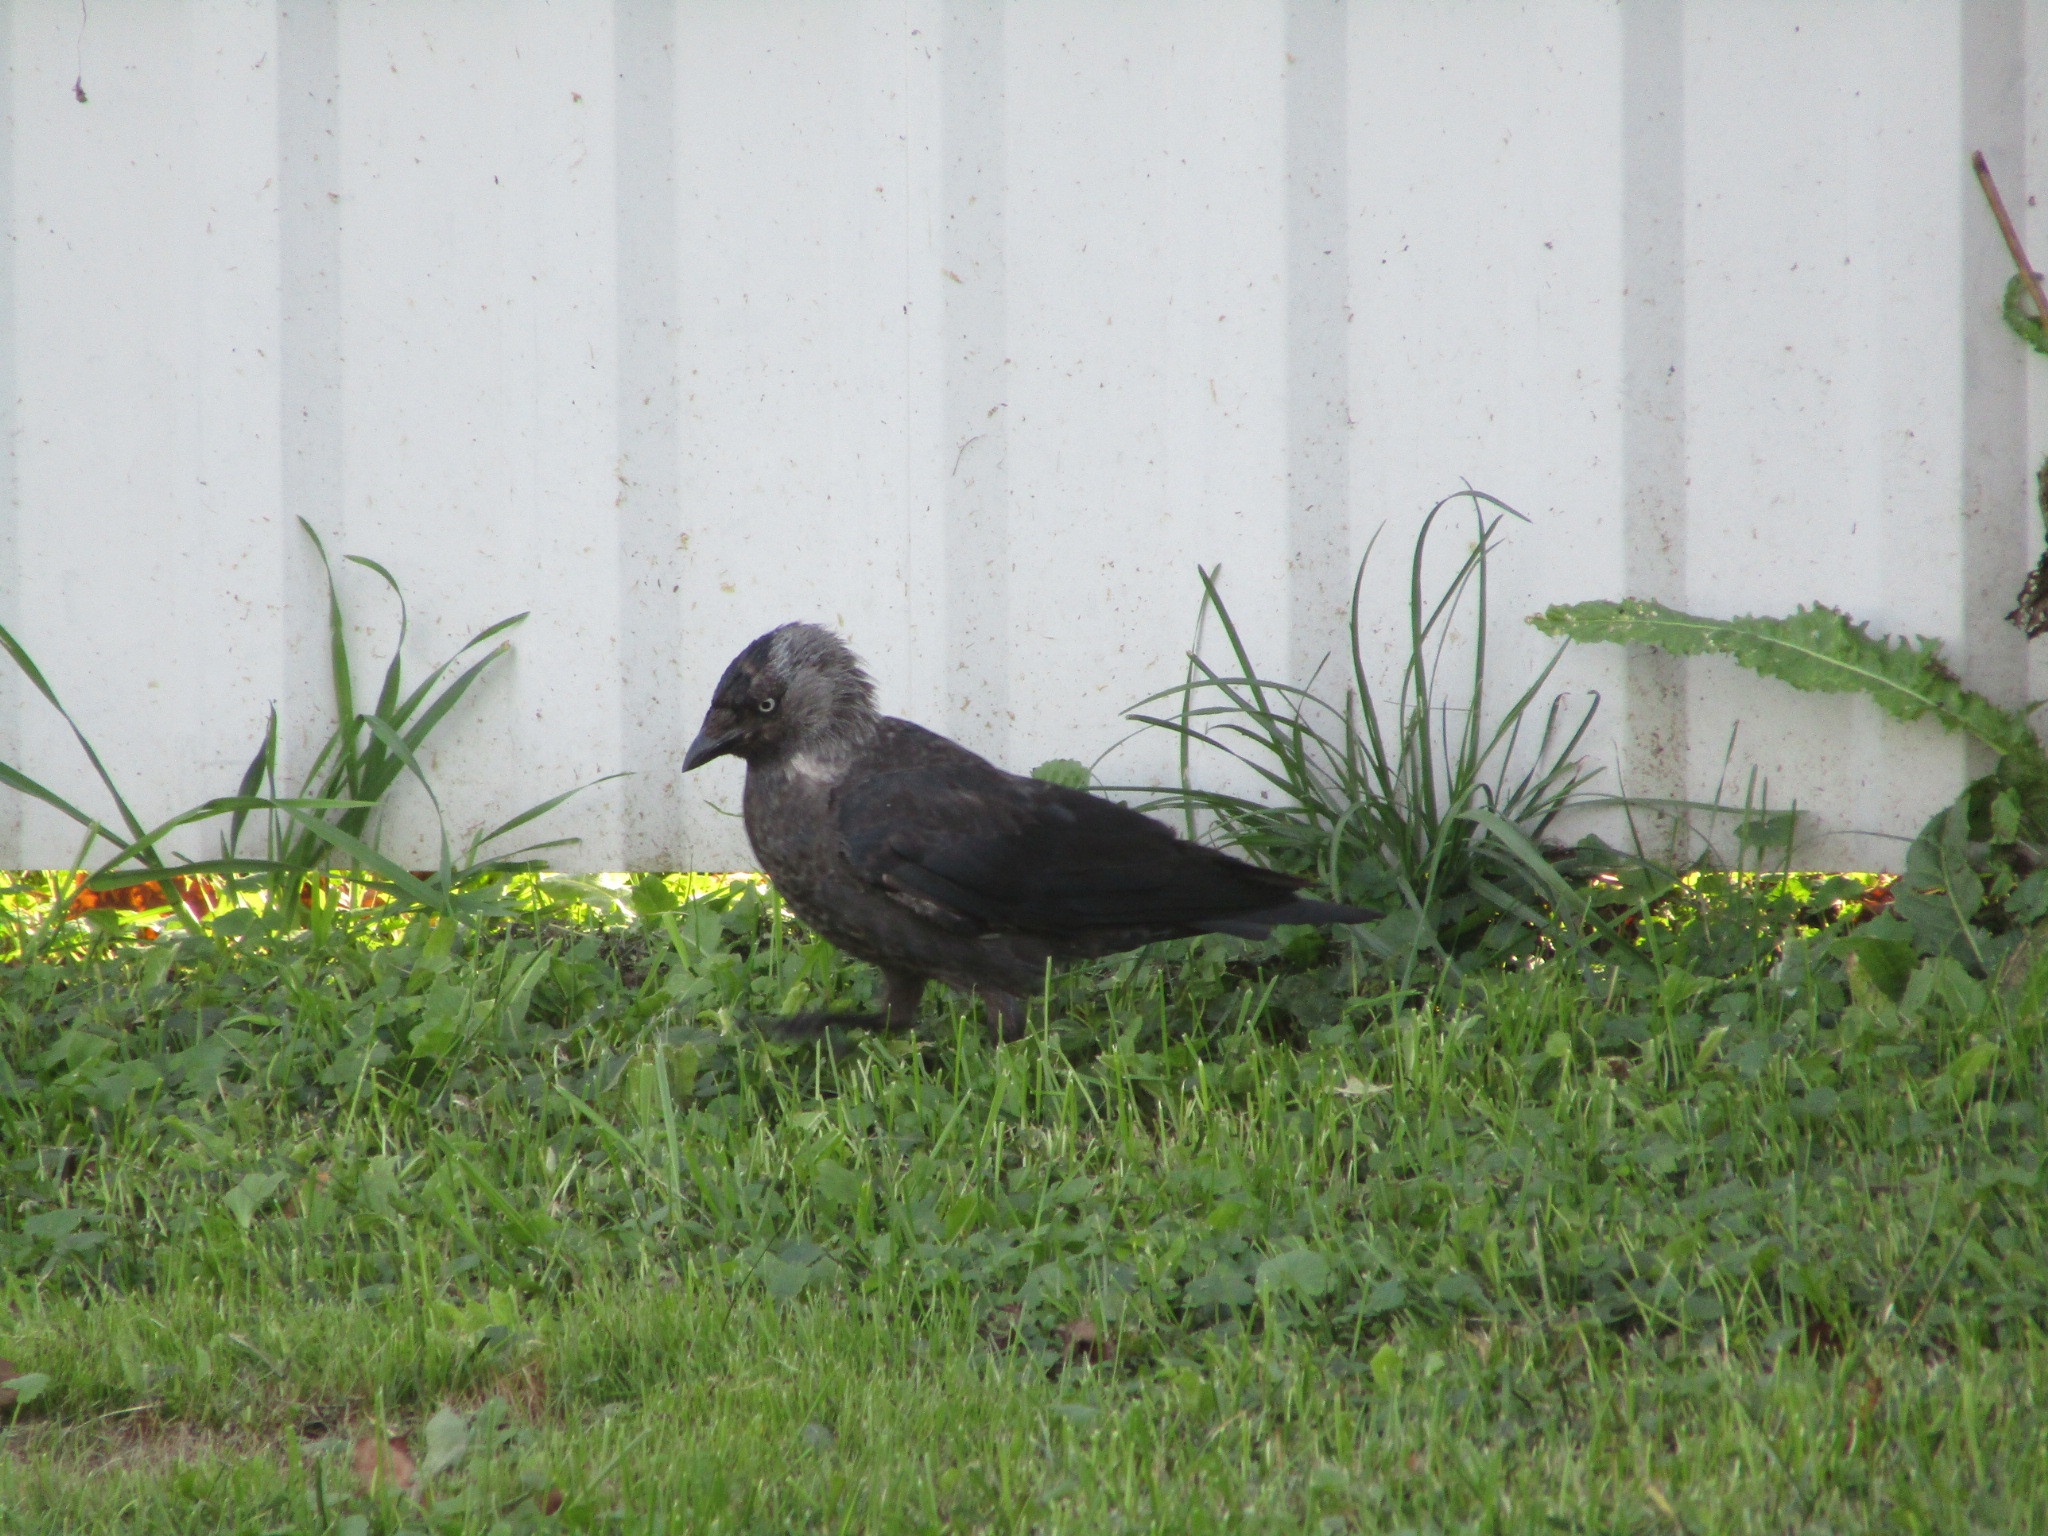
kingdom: Animalia
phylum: Chordata
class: Aves
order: Passeriformes
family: Corvidae
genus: Coloeus
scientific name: Coloeus monedula
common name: Western jackdaw
